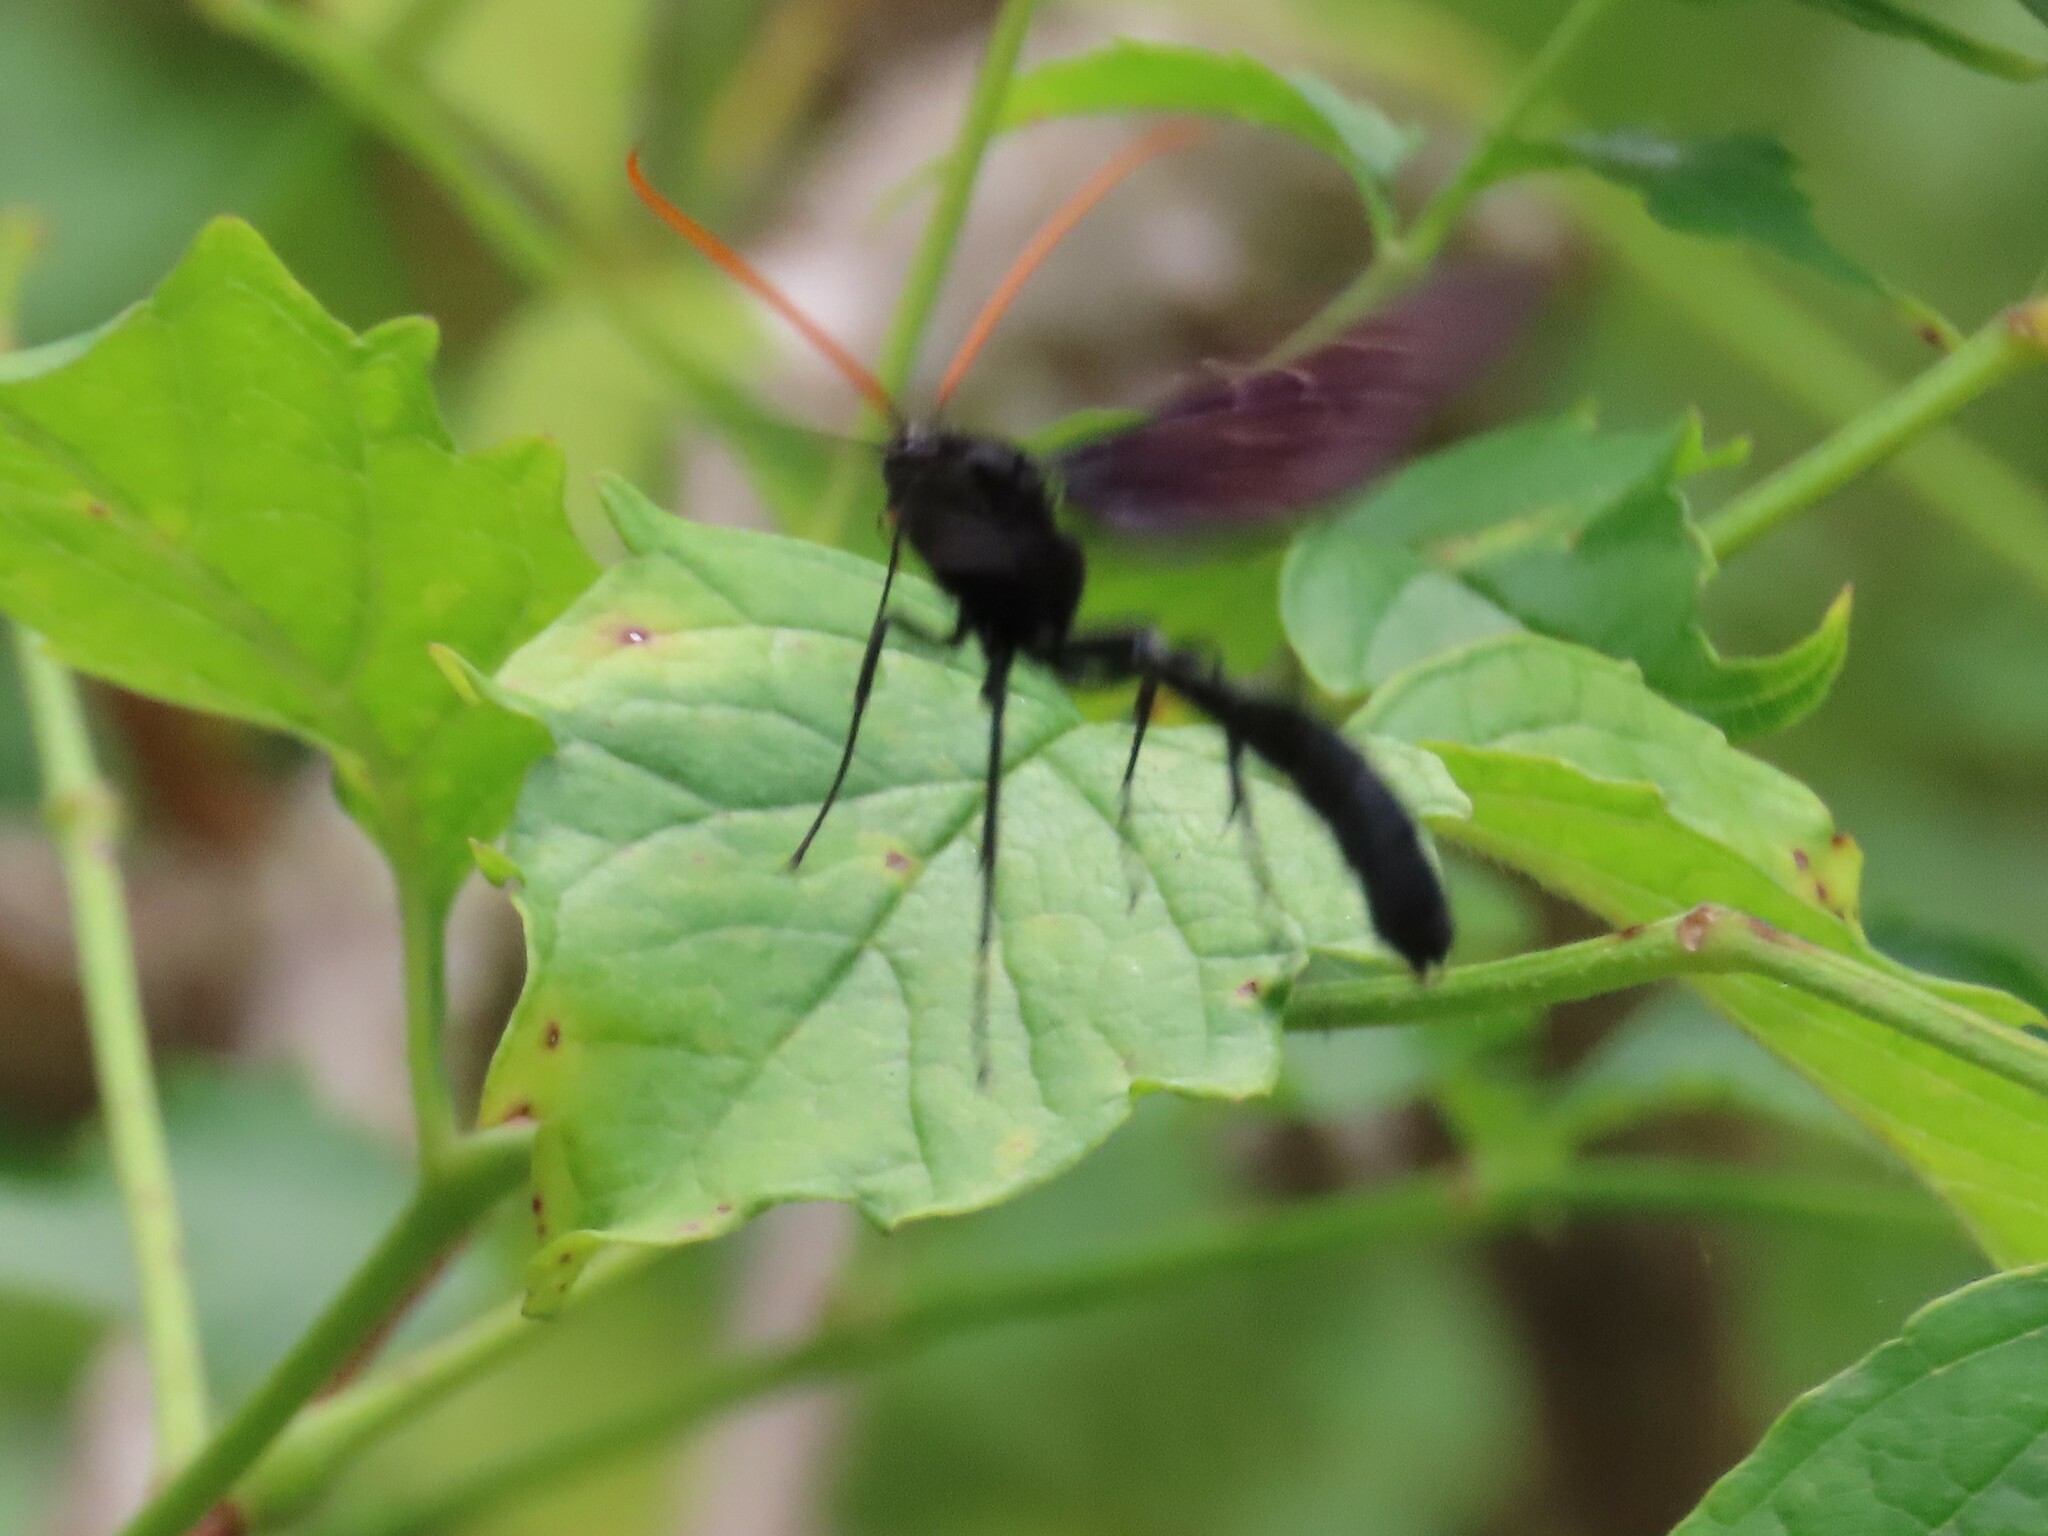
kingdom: Animalia
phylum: Arthropoda
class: Insecta
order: Hymenoptera
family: Ichneumonidae
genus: Thyreodon
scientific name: Thyreodon atricolor
